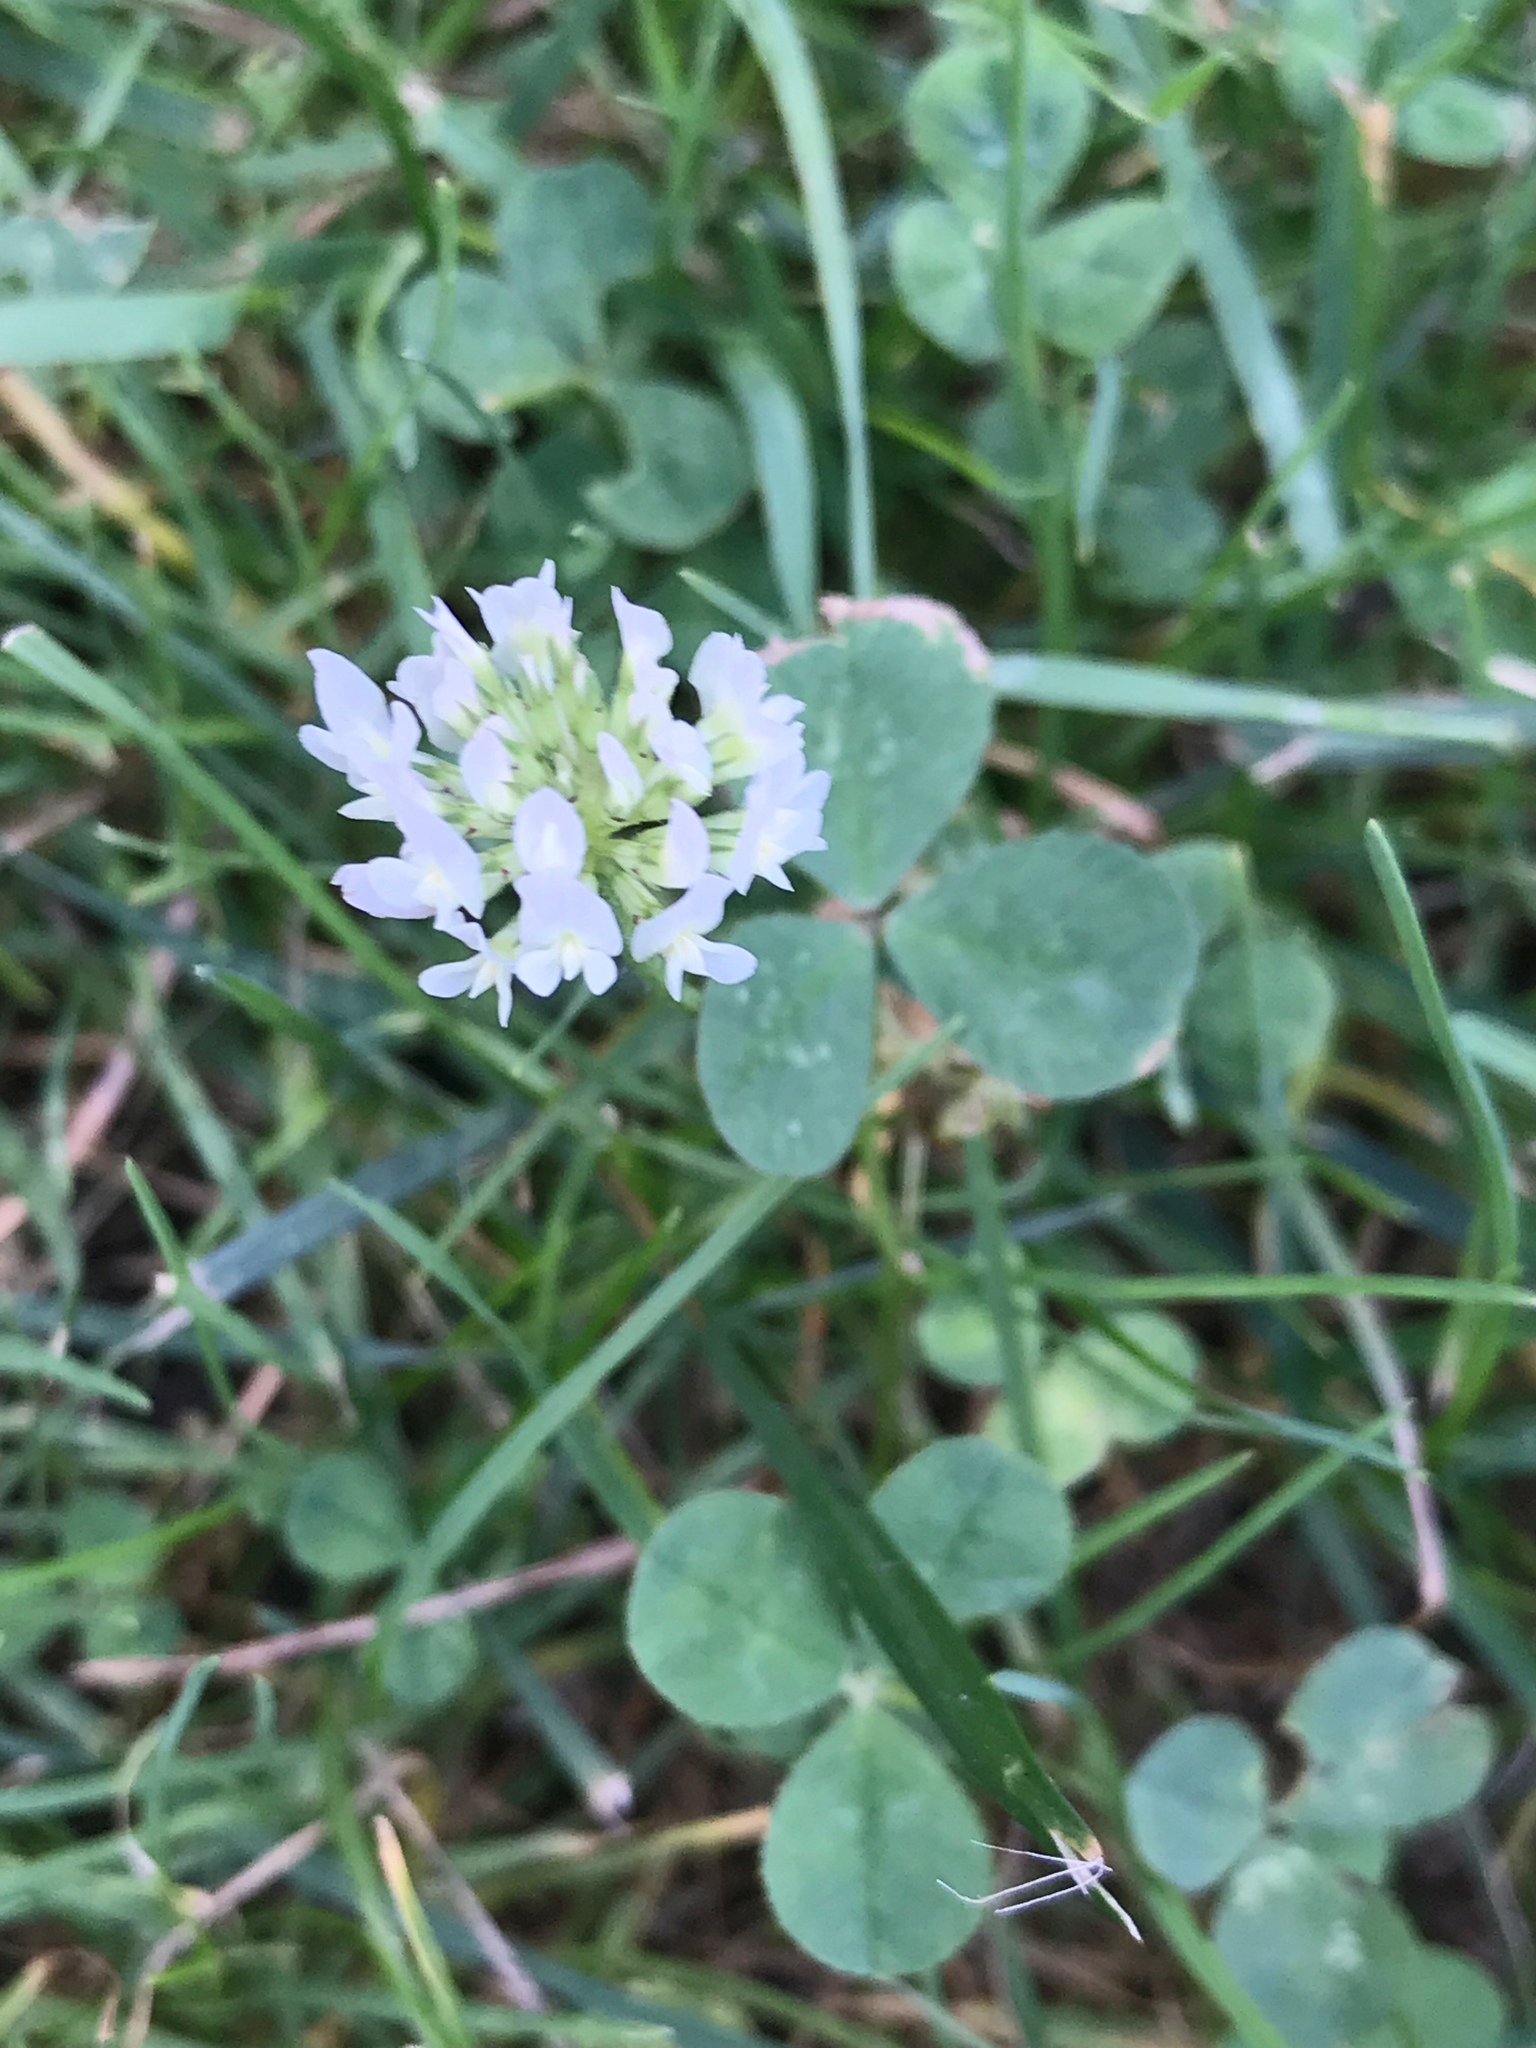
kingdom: Plantae
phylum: Tracheophyta
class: Magnoliopsida
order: Fabales
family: Fabaceae
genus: Trifolium
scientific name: Trifolium repens
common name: White clover
